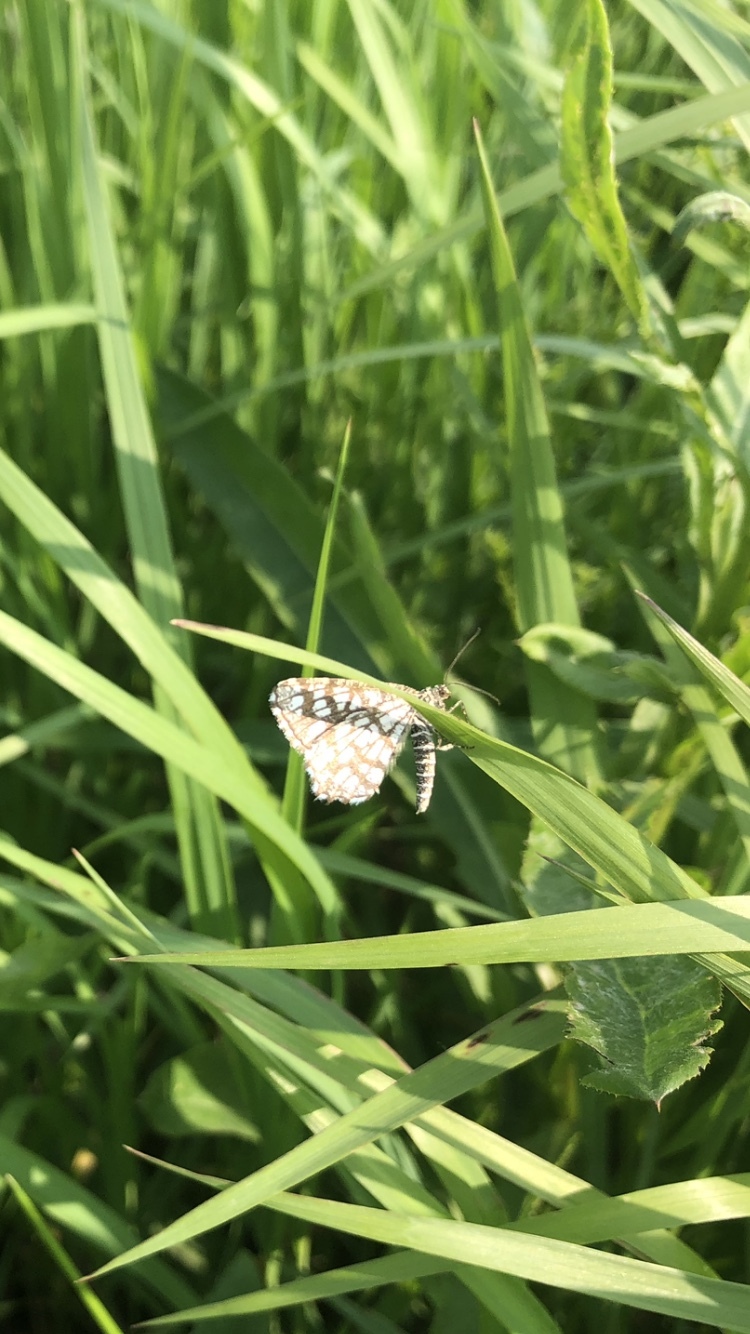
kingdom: Animalia
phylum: Arthropoda
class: Insecta
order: Lepidoptera
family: Geometridae
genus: Chiasmia
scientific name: Chiasmia clathrata
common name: Latticed heath
